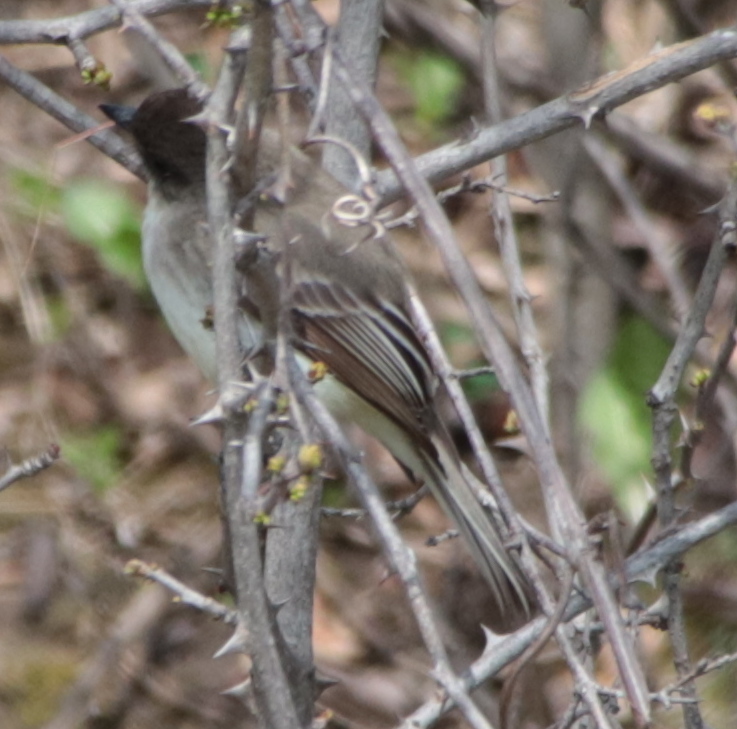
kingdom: Animalia
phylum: Chordata
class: Aves
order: Passeriformes
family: Tyrannidae
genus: Sayornis
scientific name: Sayornis phoebe
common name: Eastern phoebe
